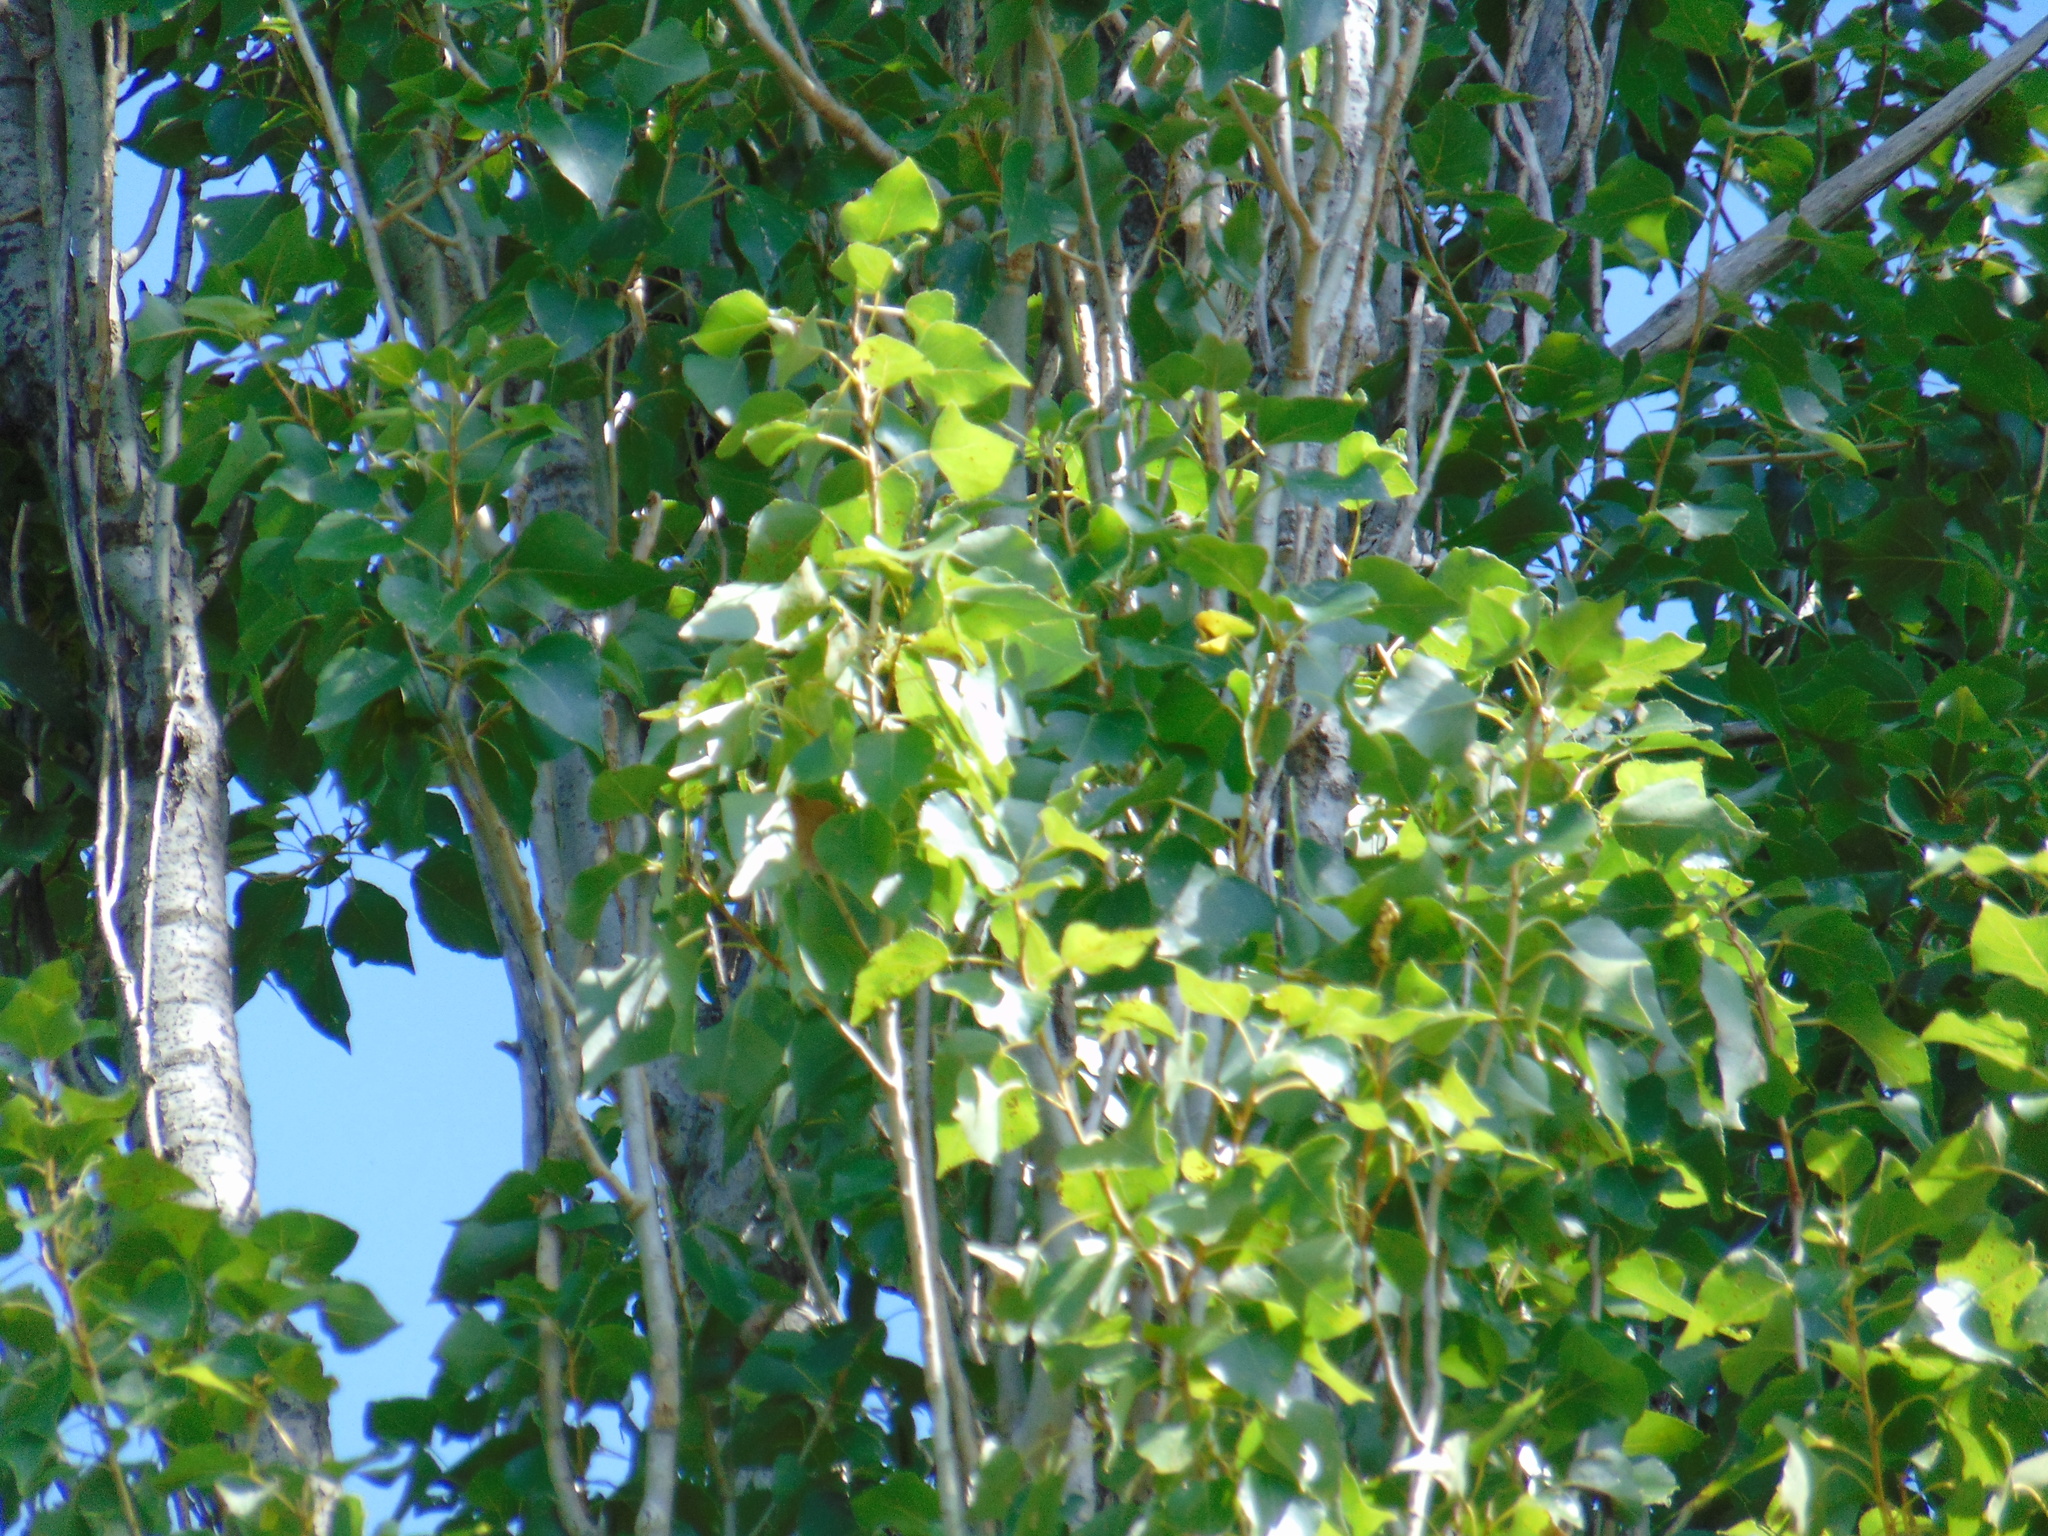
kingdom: Plantae
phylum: Tracheophyta
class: Magnoliopsida
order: Malpighiales
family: Salicaceae
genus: Populus
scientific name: Populus nigra
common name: Black poplar
